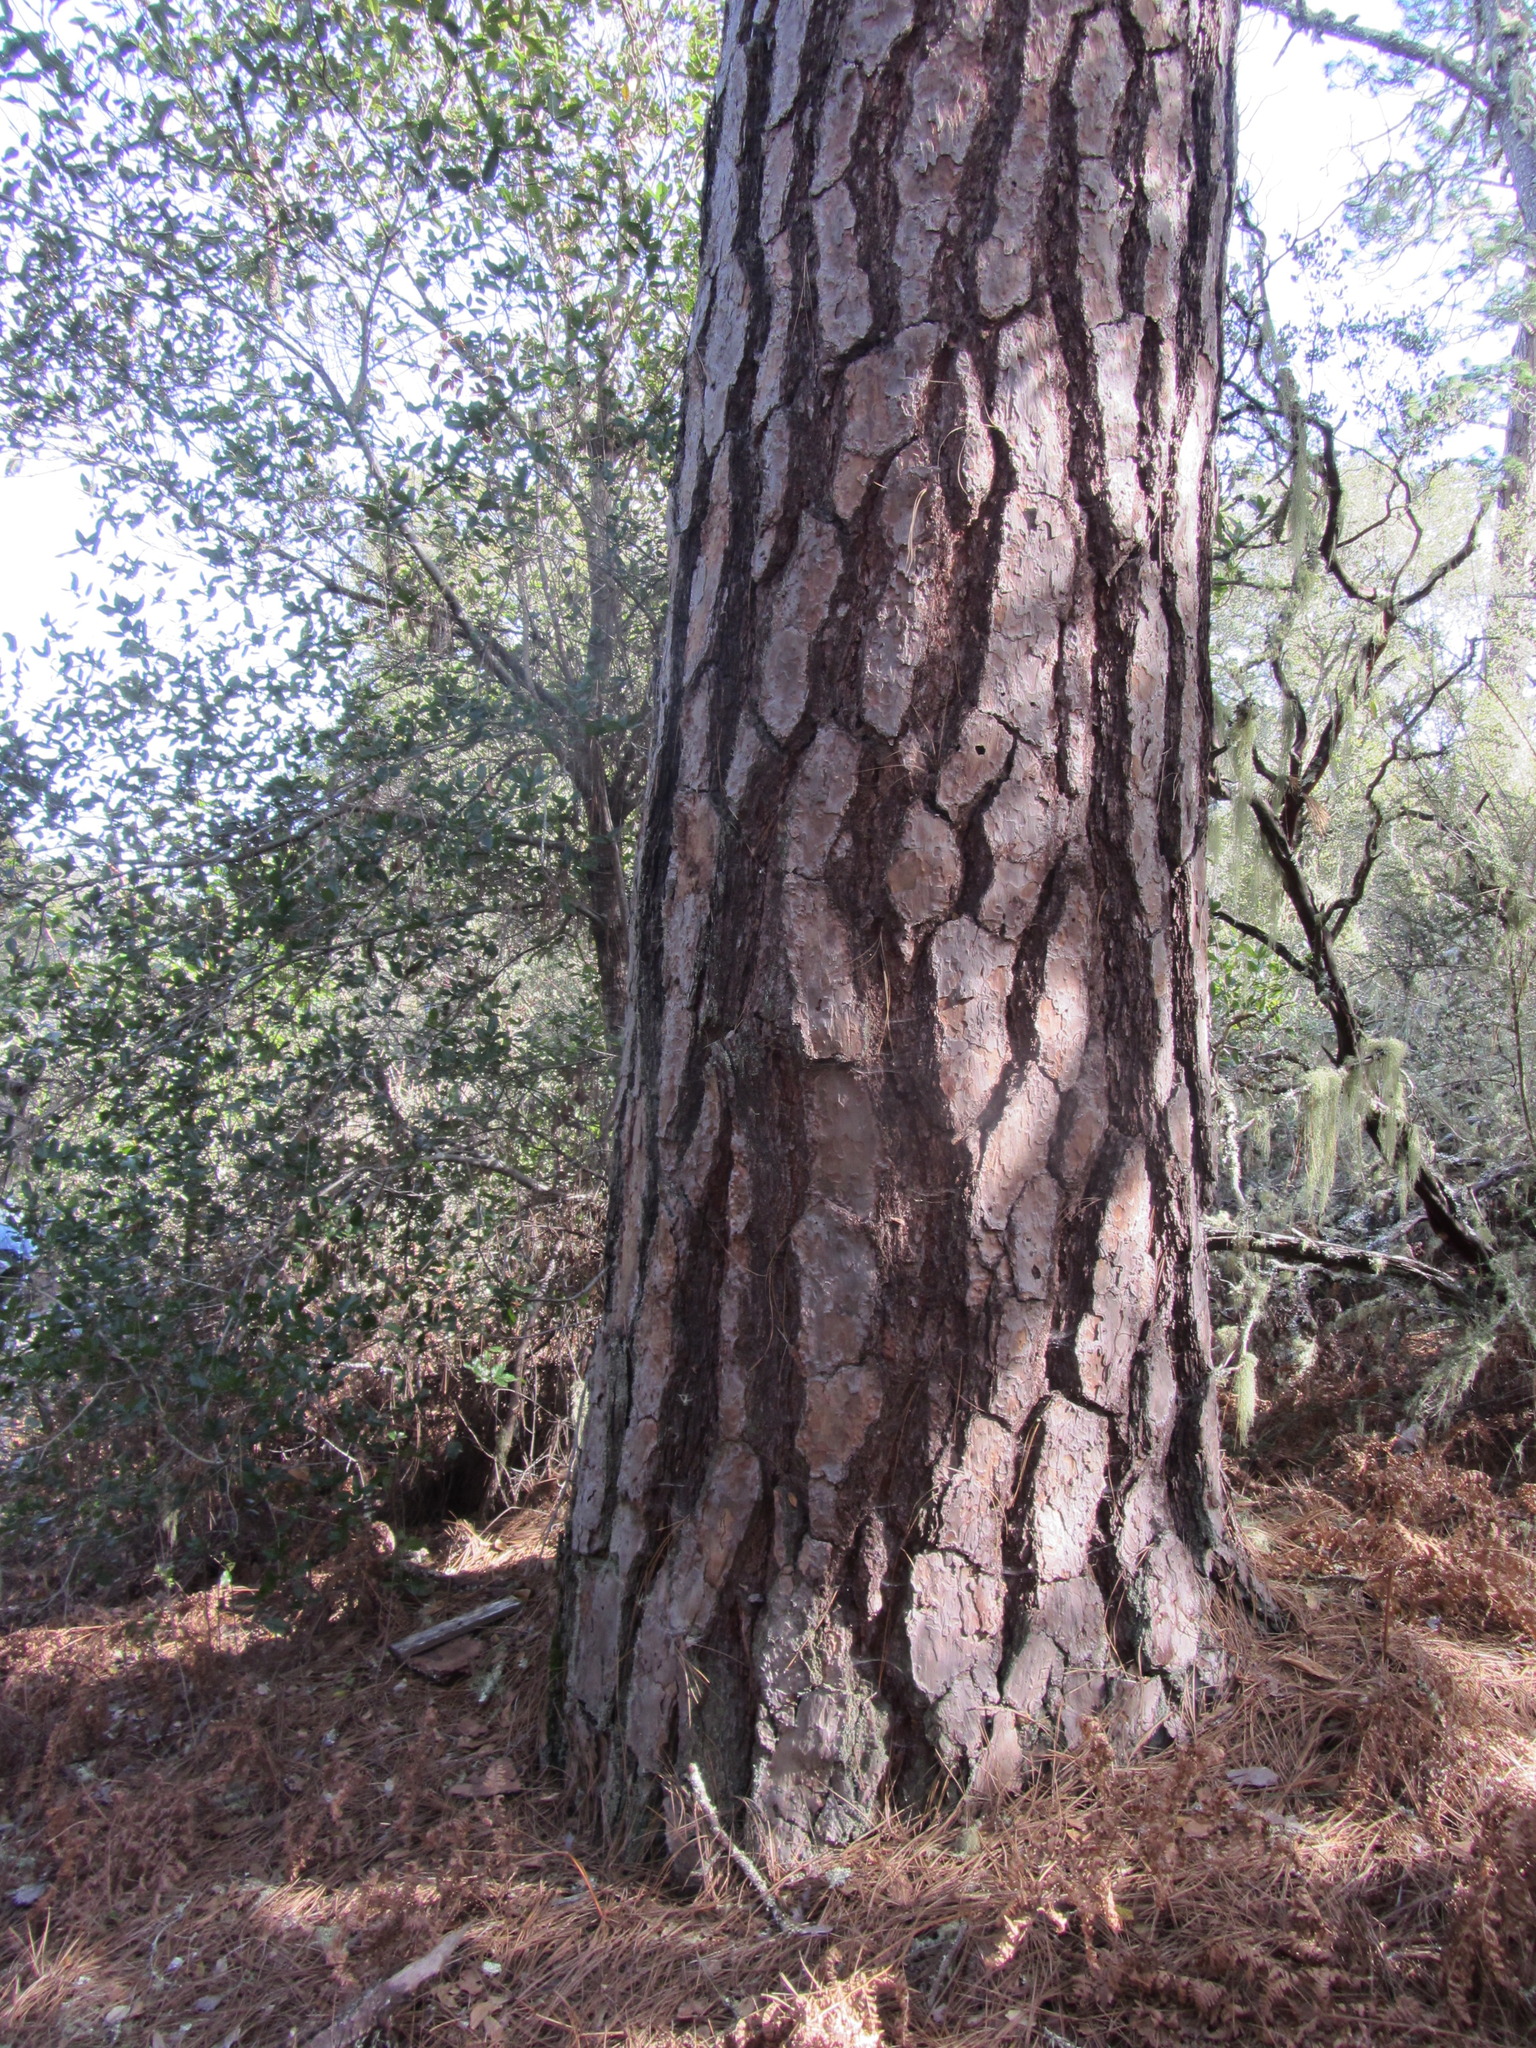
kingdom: Plantae
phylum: Tracheophyta
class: Pinopsida
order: Pinales
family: Pinaceae
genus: Pinus
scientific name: Pinus ponderosa
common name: Western yellow-pine
